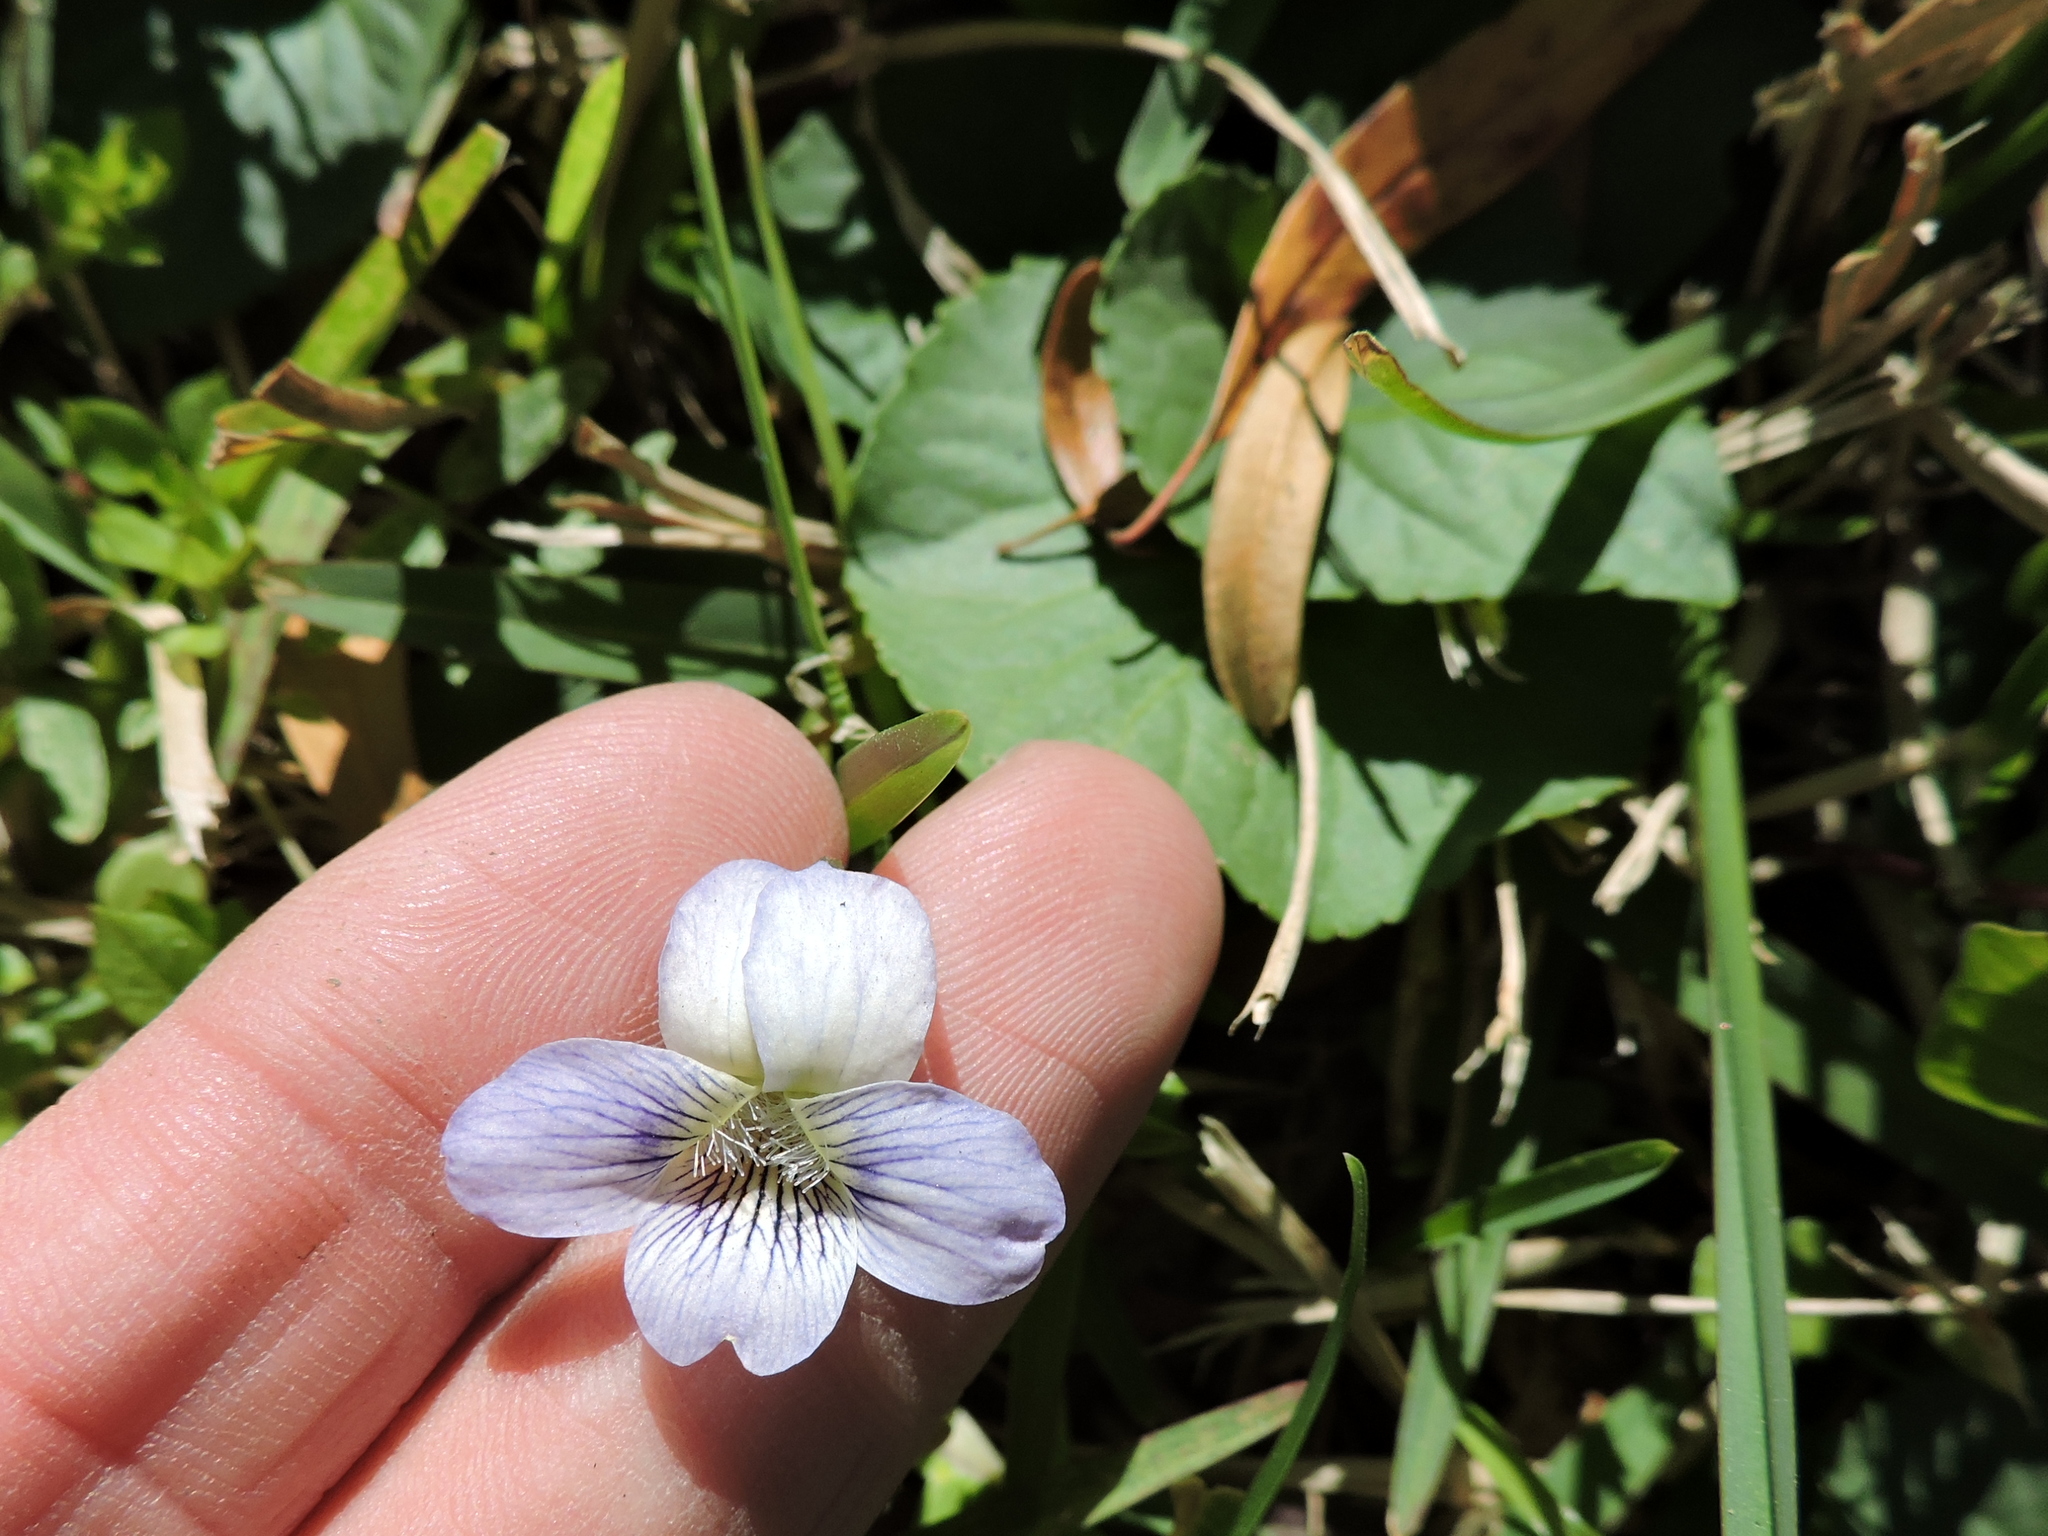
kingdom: Plantae
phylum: Tracheophyta
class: Magnoliopsida
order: Malpighiales
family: Violaceae
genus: Viola
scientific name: Viola sororia
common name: Dooryard violet
